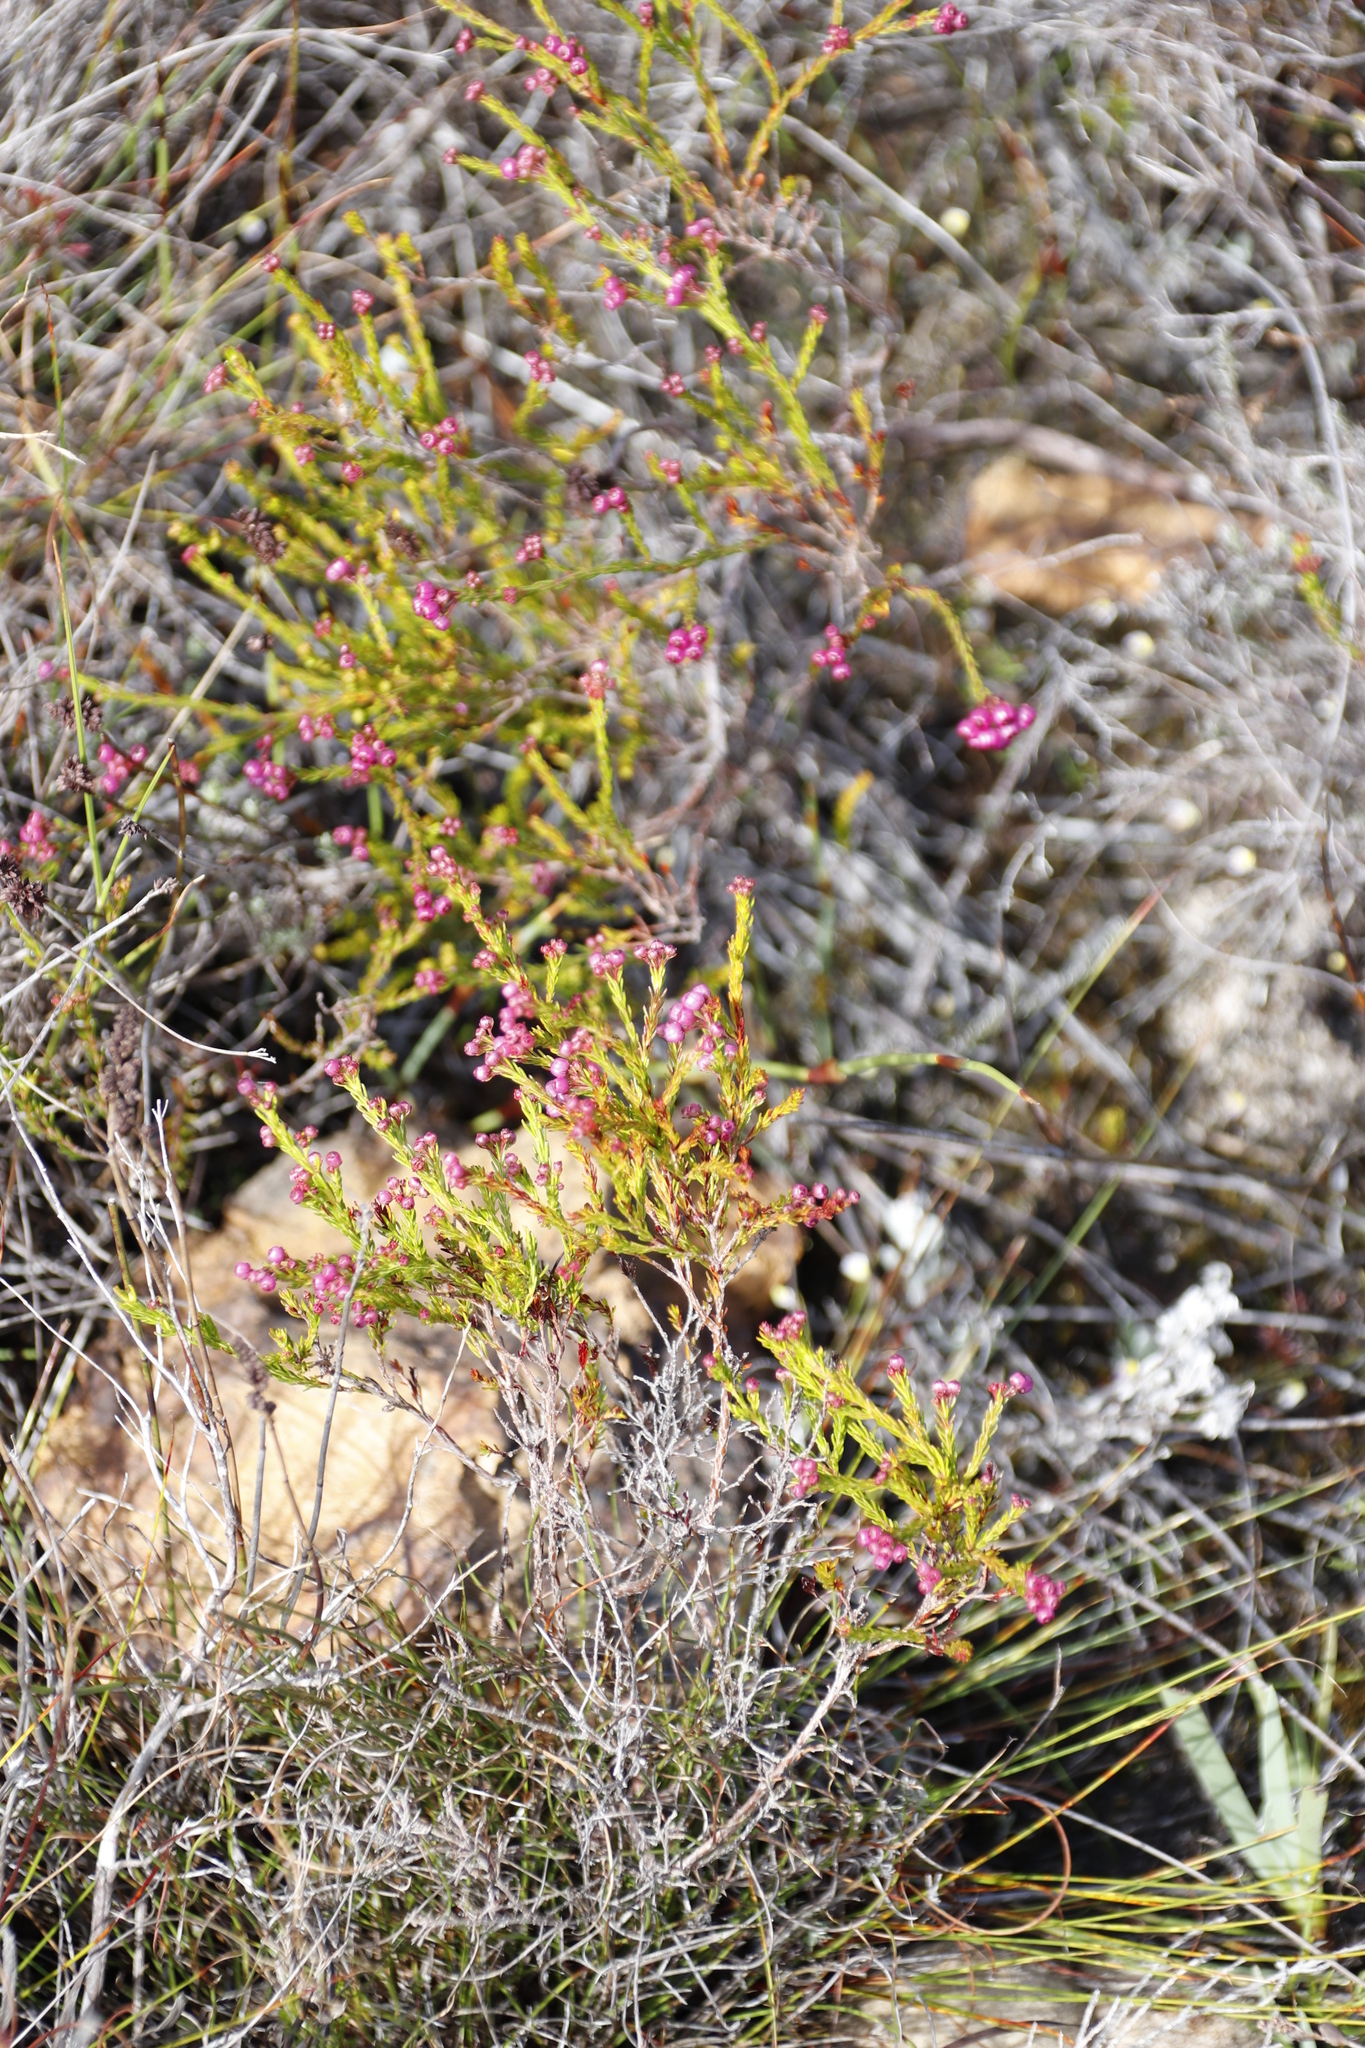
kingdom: Plantae
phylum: Tracheophyta
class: Magnoliopsida
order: Ericales
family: Ericaceae
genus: Erica
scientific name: Erica multumbellifera
